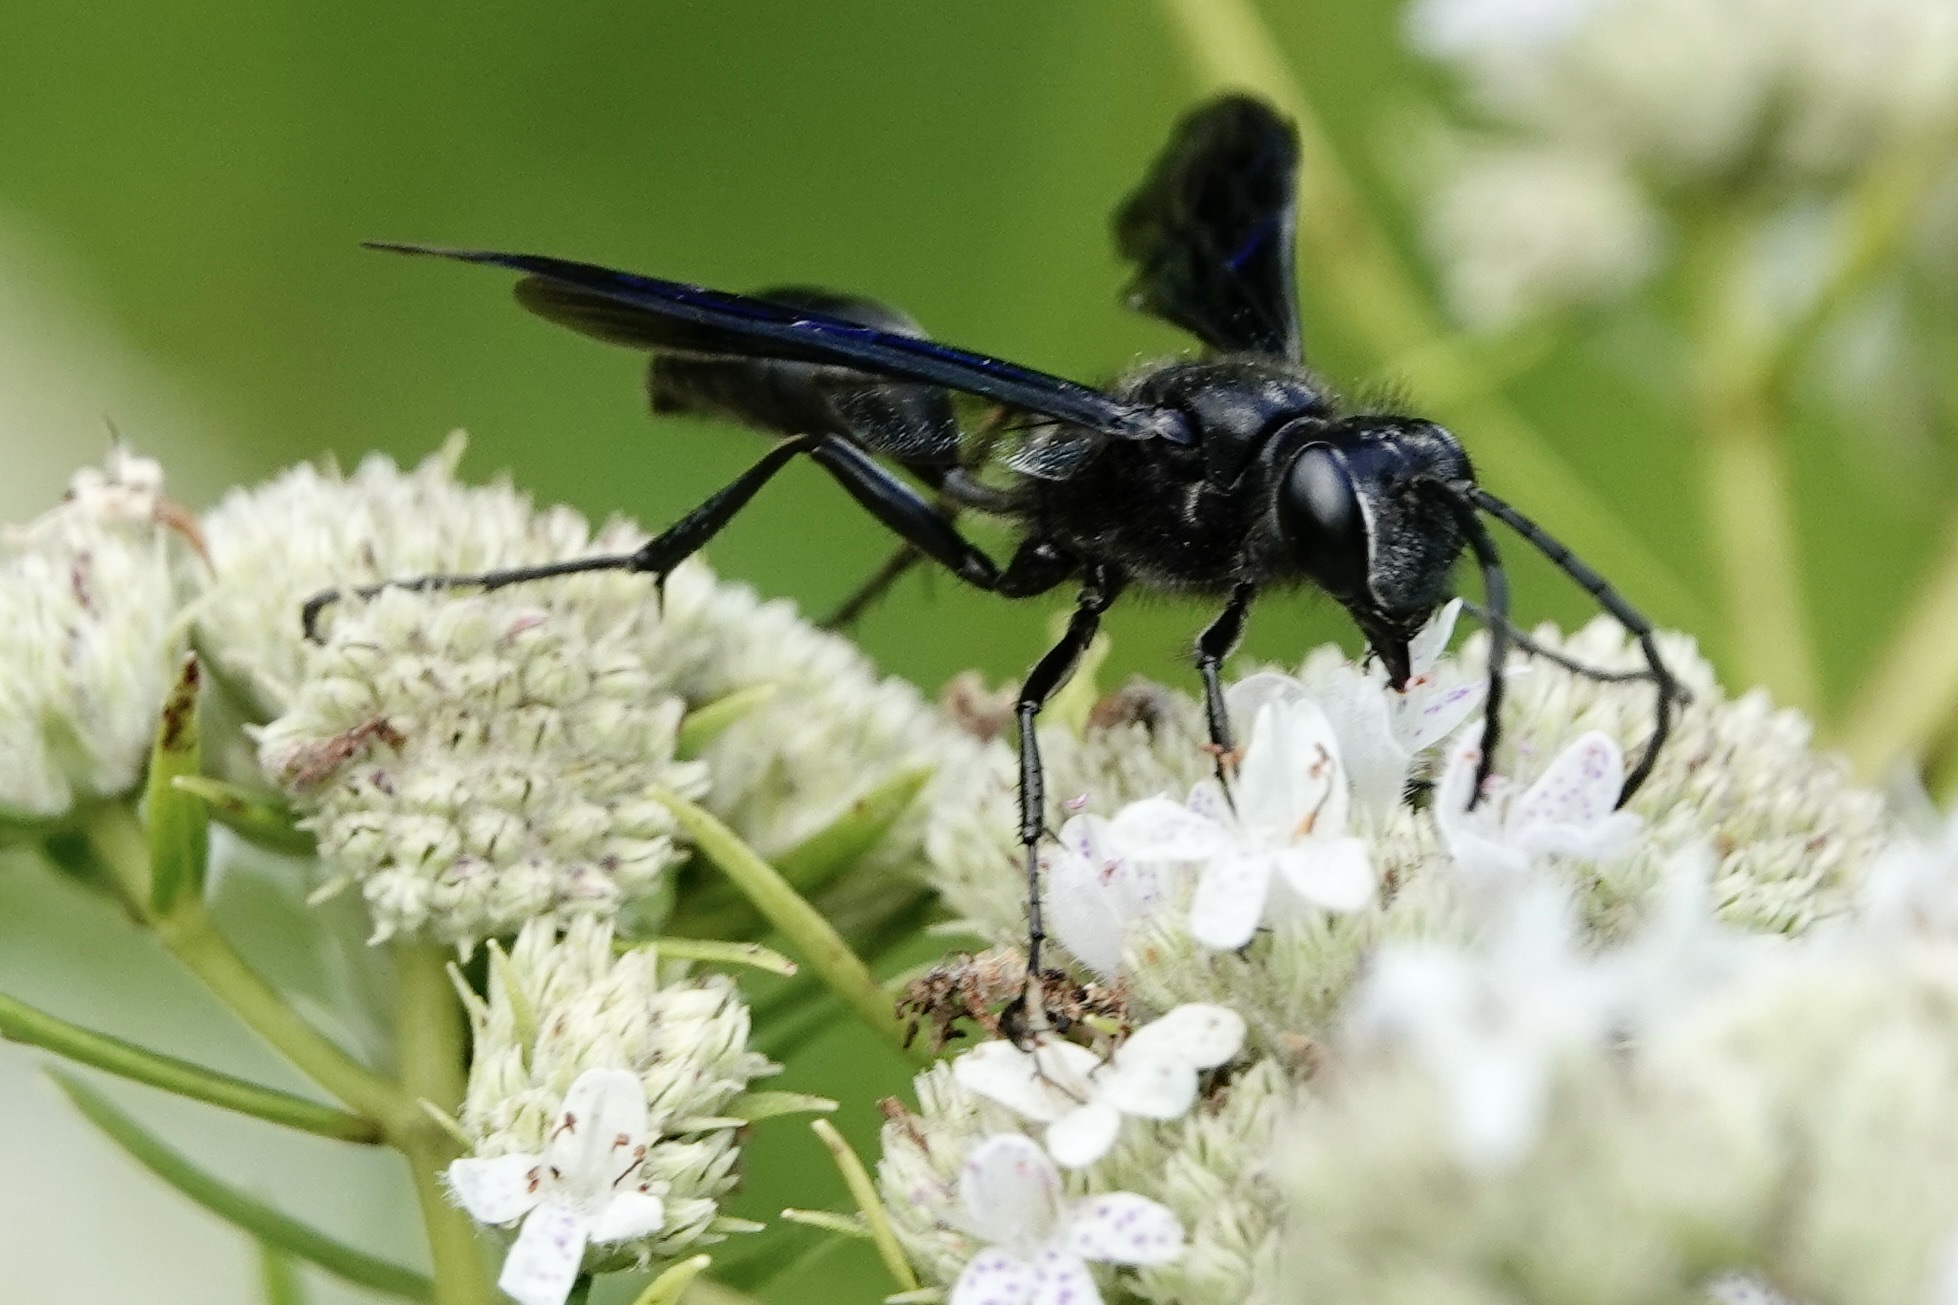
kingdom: Animalia
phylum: Arthropoda
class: Insecta
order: Hymenoptera
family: Sphecidae
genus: Isodontia
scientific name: Isodontia philadelphica
